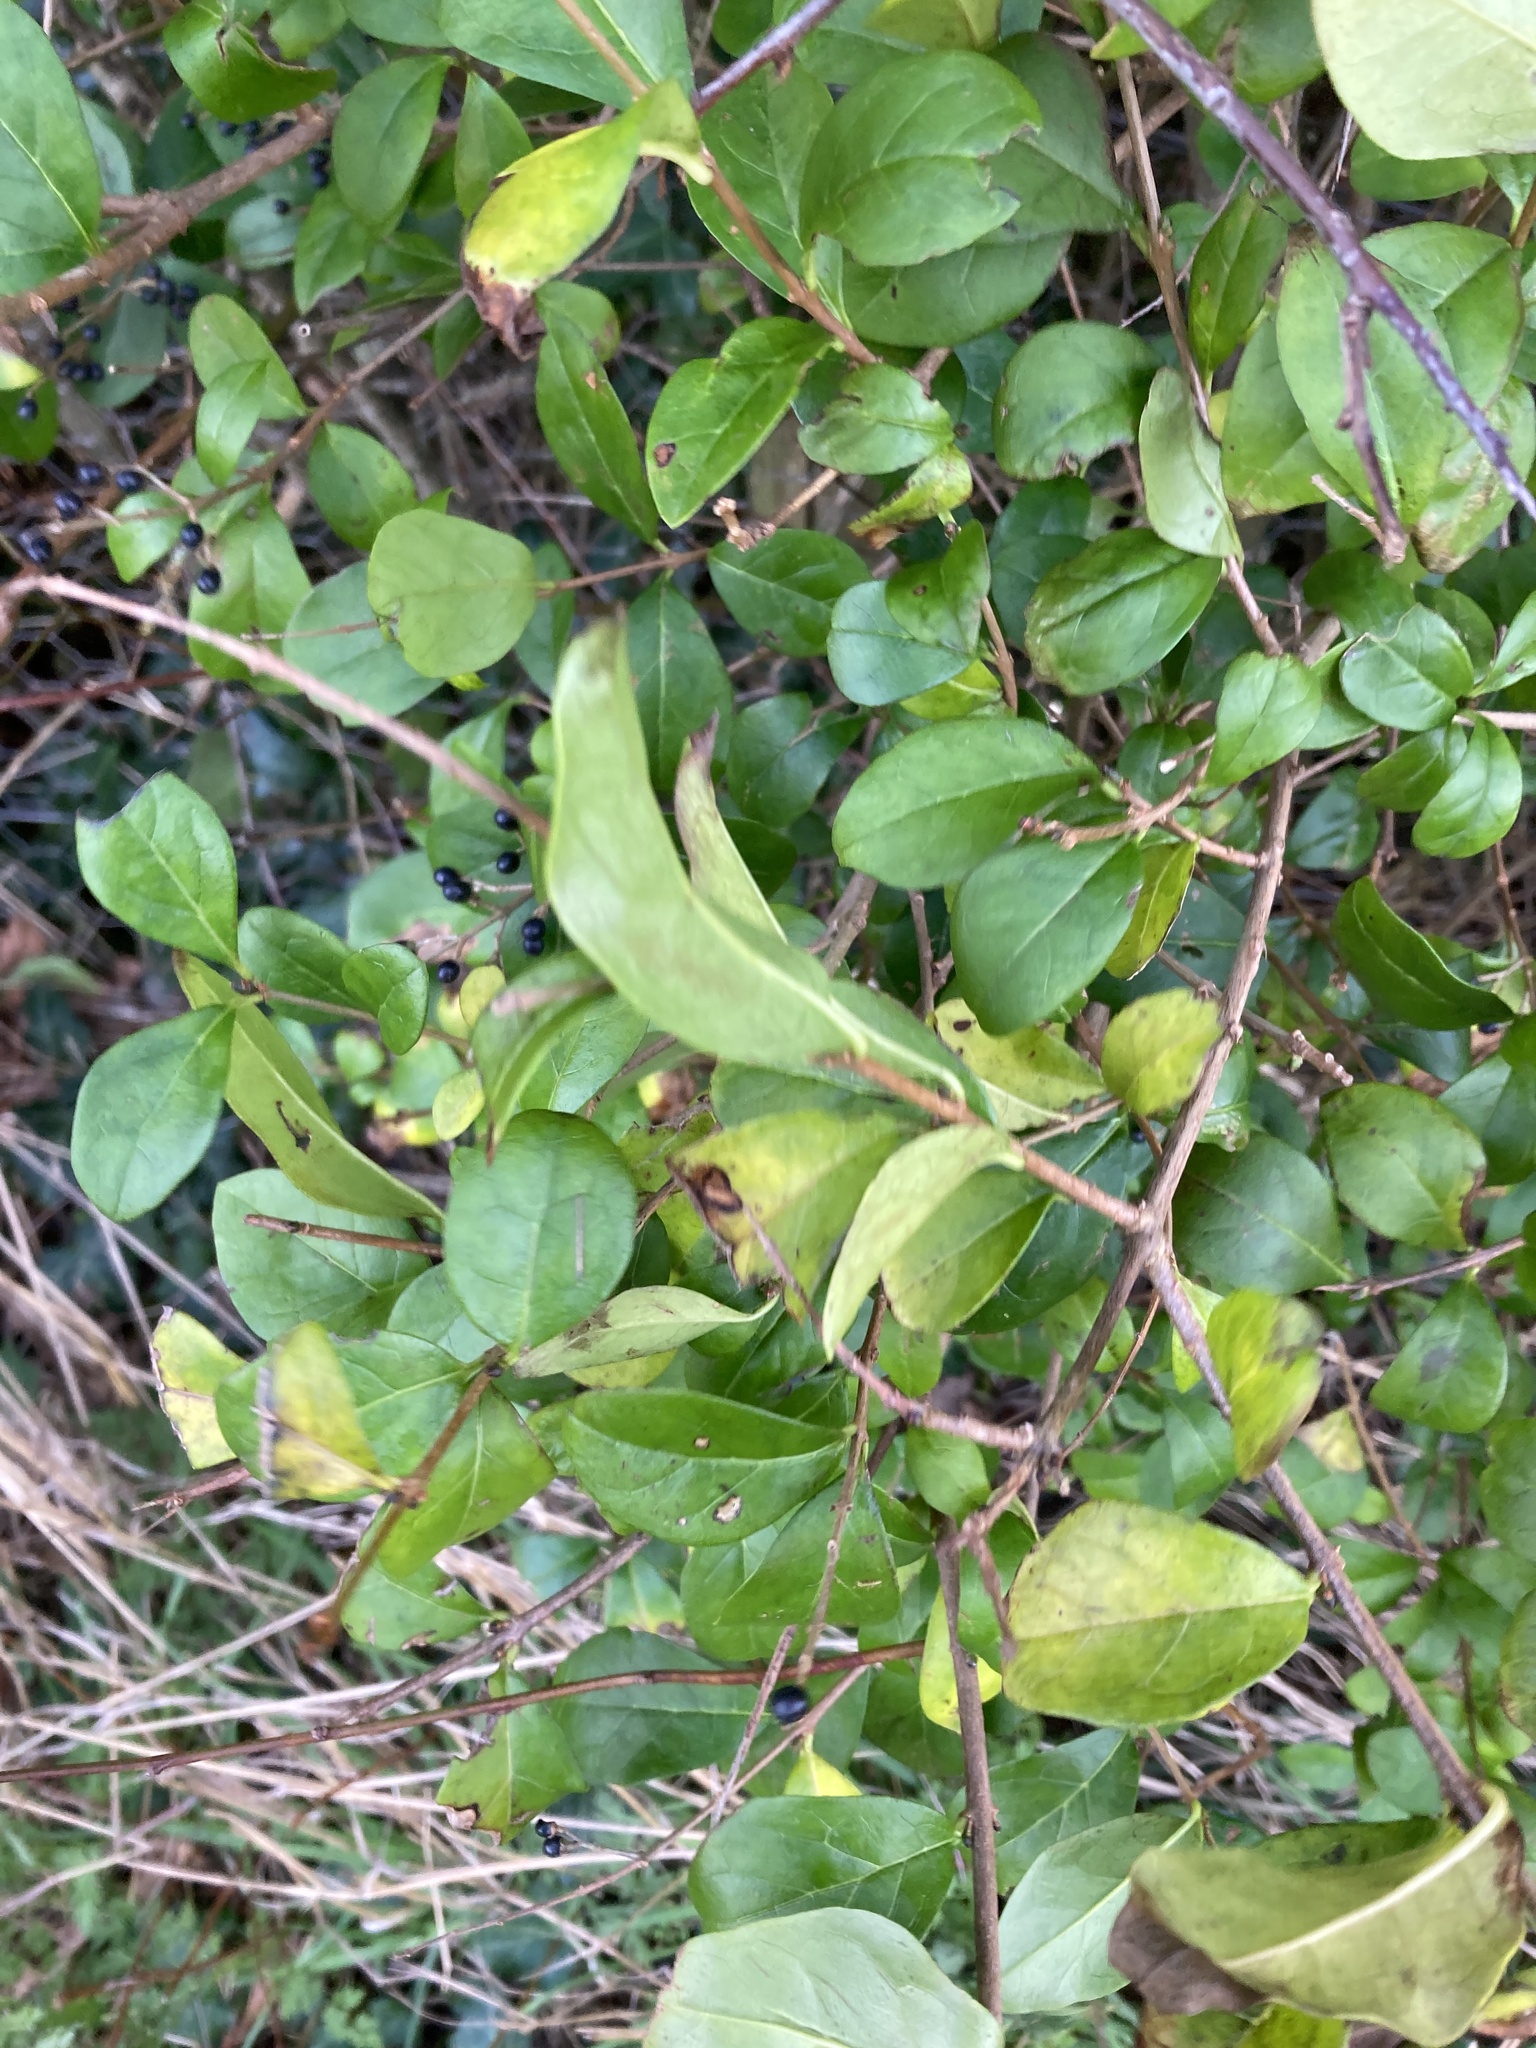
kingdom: Plantae
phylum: Tracheophyta
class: Magnoliopsida
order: Lamiales
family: Oleaceae
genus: Ligustrum
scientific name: Ligustrum ovalifolium
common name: California privet
